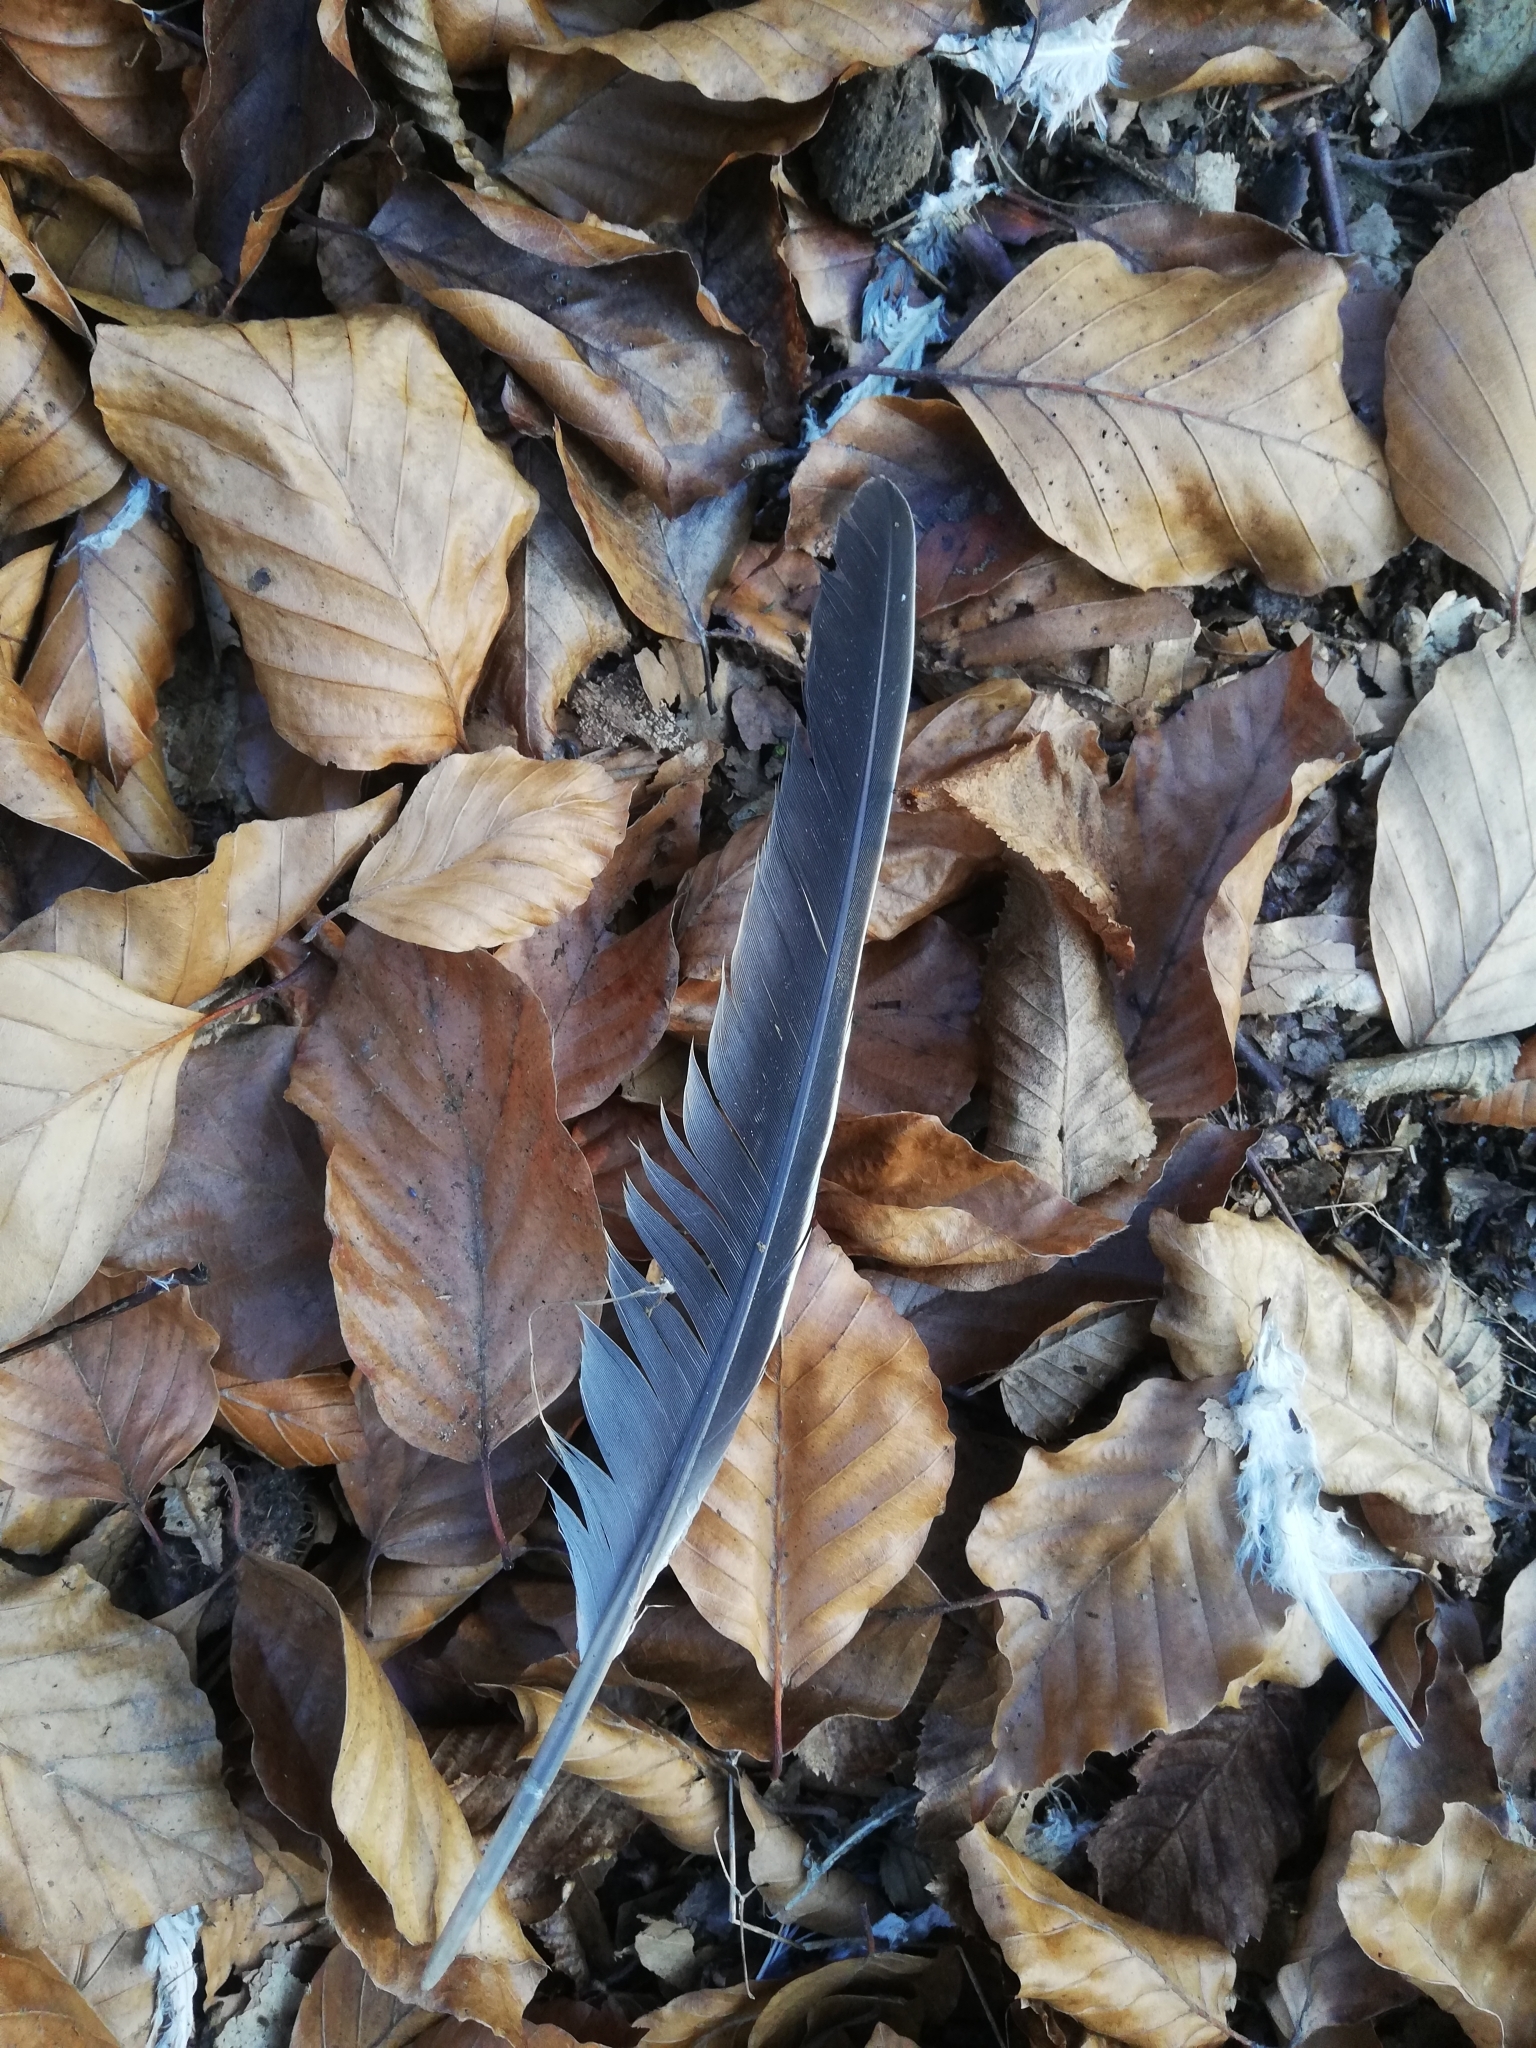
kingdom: Animalia
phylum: Chordata
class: Aves
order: Columbiformes
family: Columbidae
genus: Columba
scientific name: Columba palumbus
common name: Common wood pigeon
